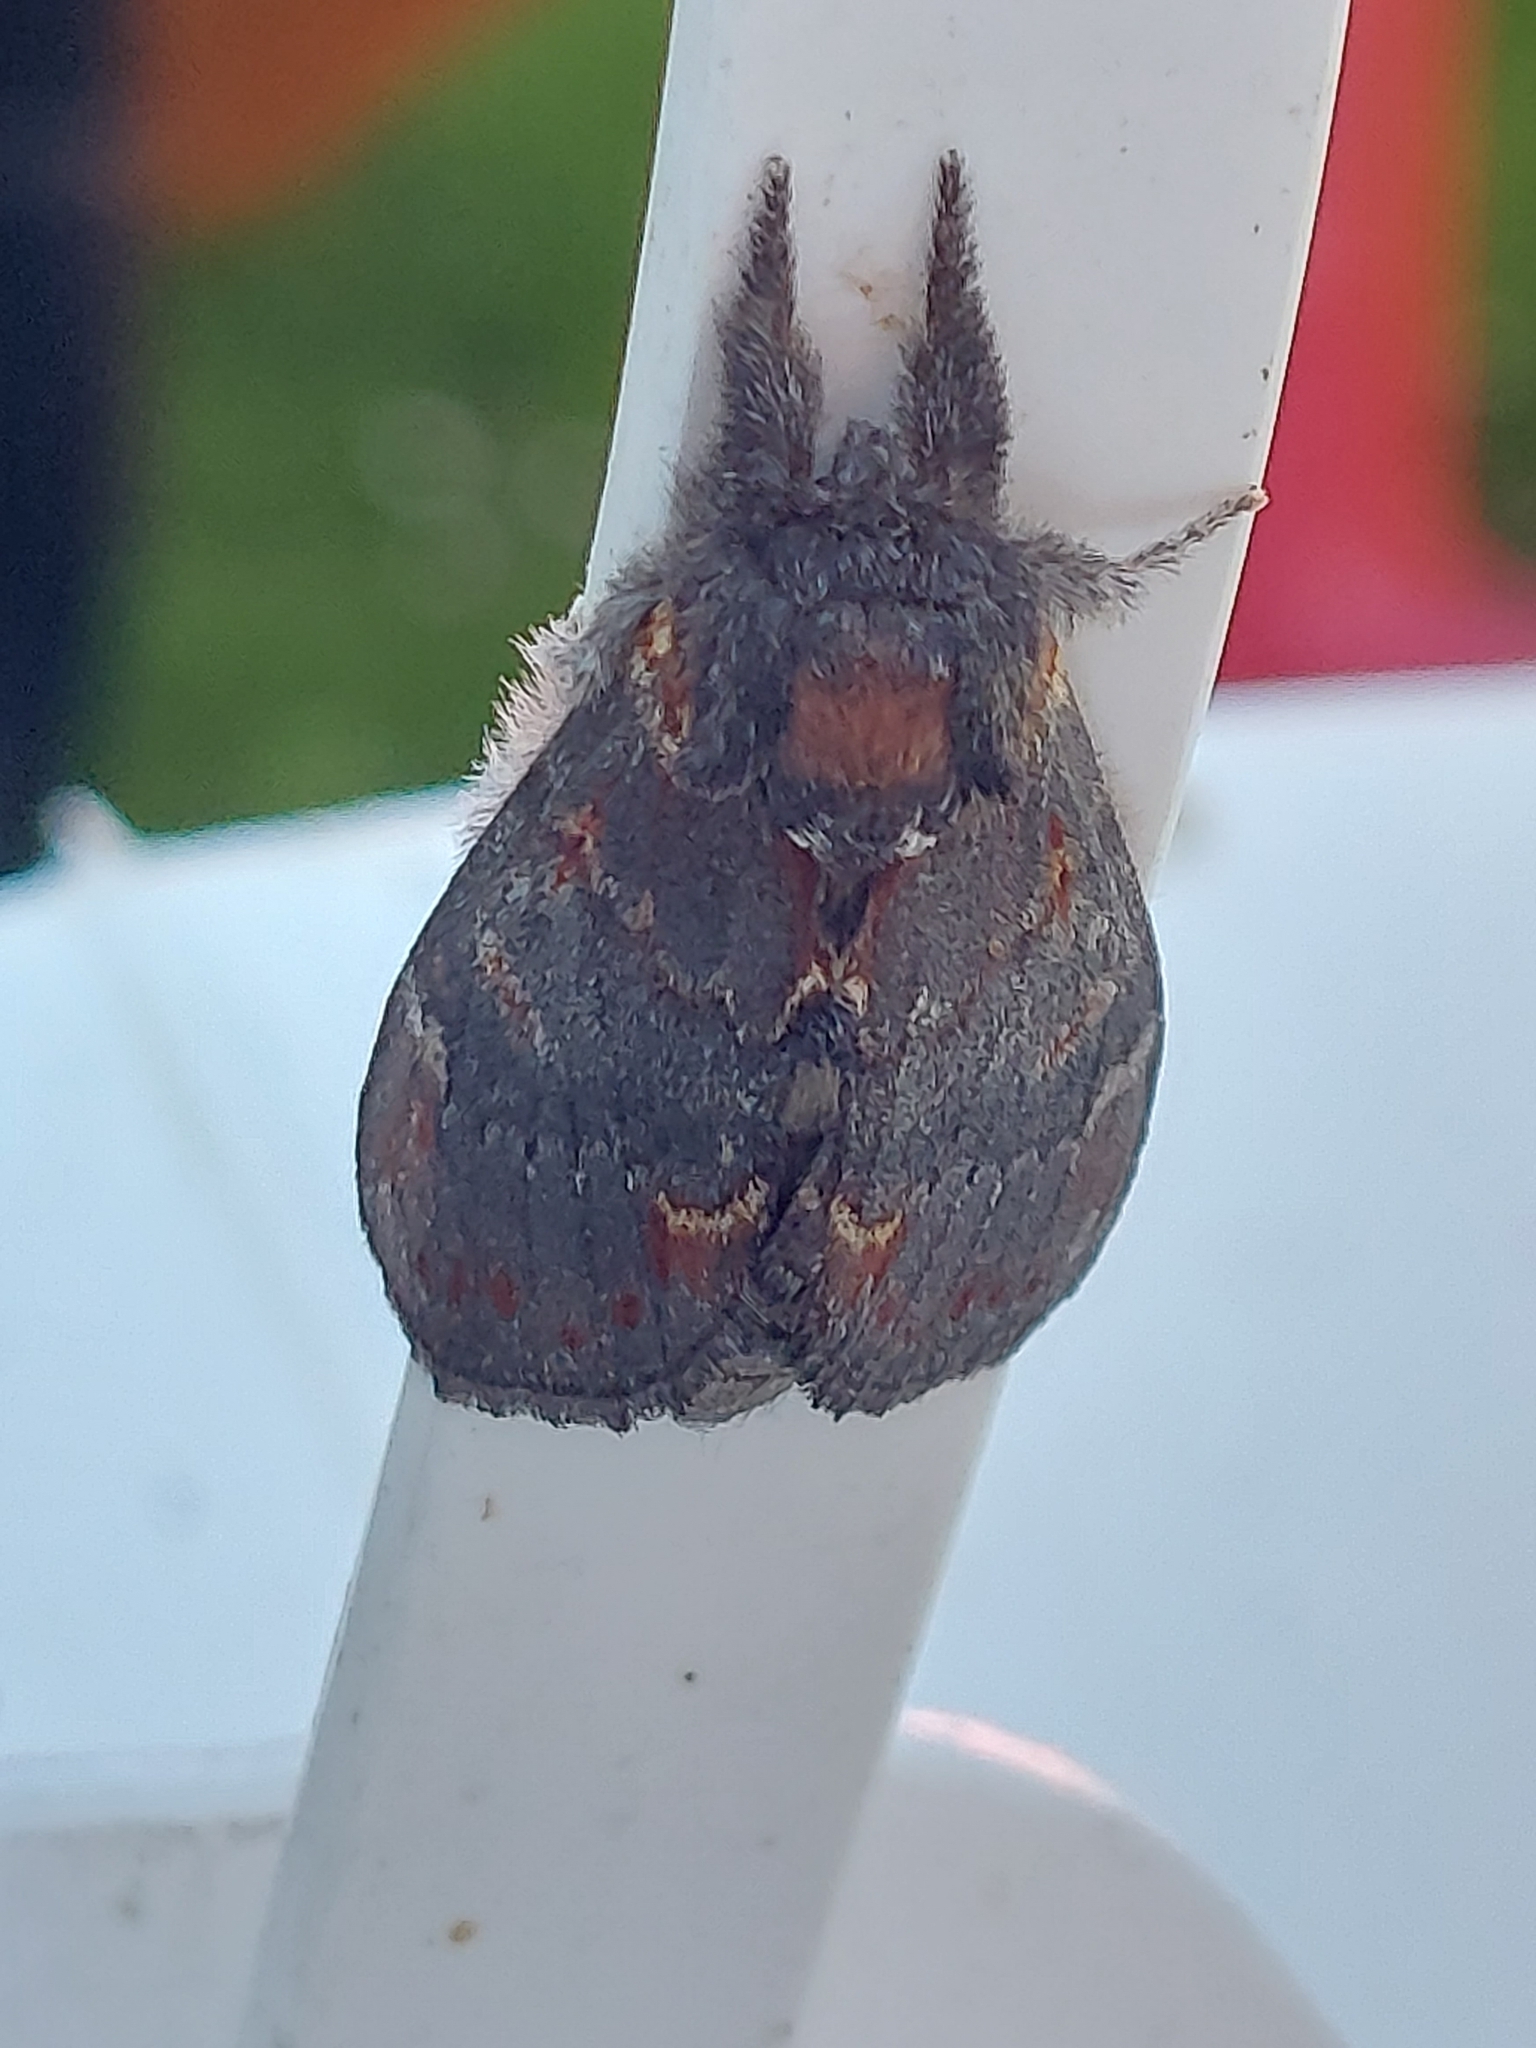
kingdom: Animalia
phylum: Arthropoda
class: Insecta
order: Lepidoptera
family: Notodontidae
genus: Notodonta
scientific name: Notodonta dromedarius
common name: Iron prominent
